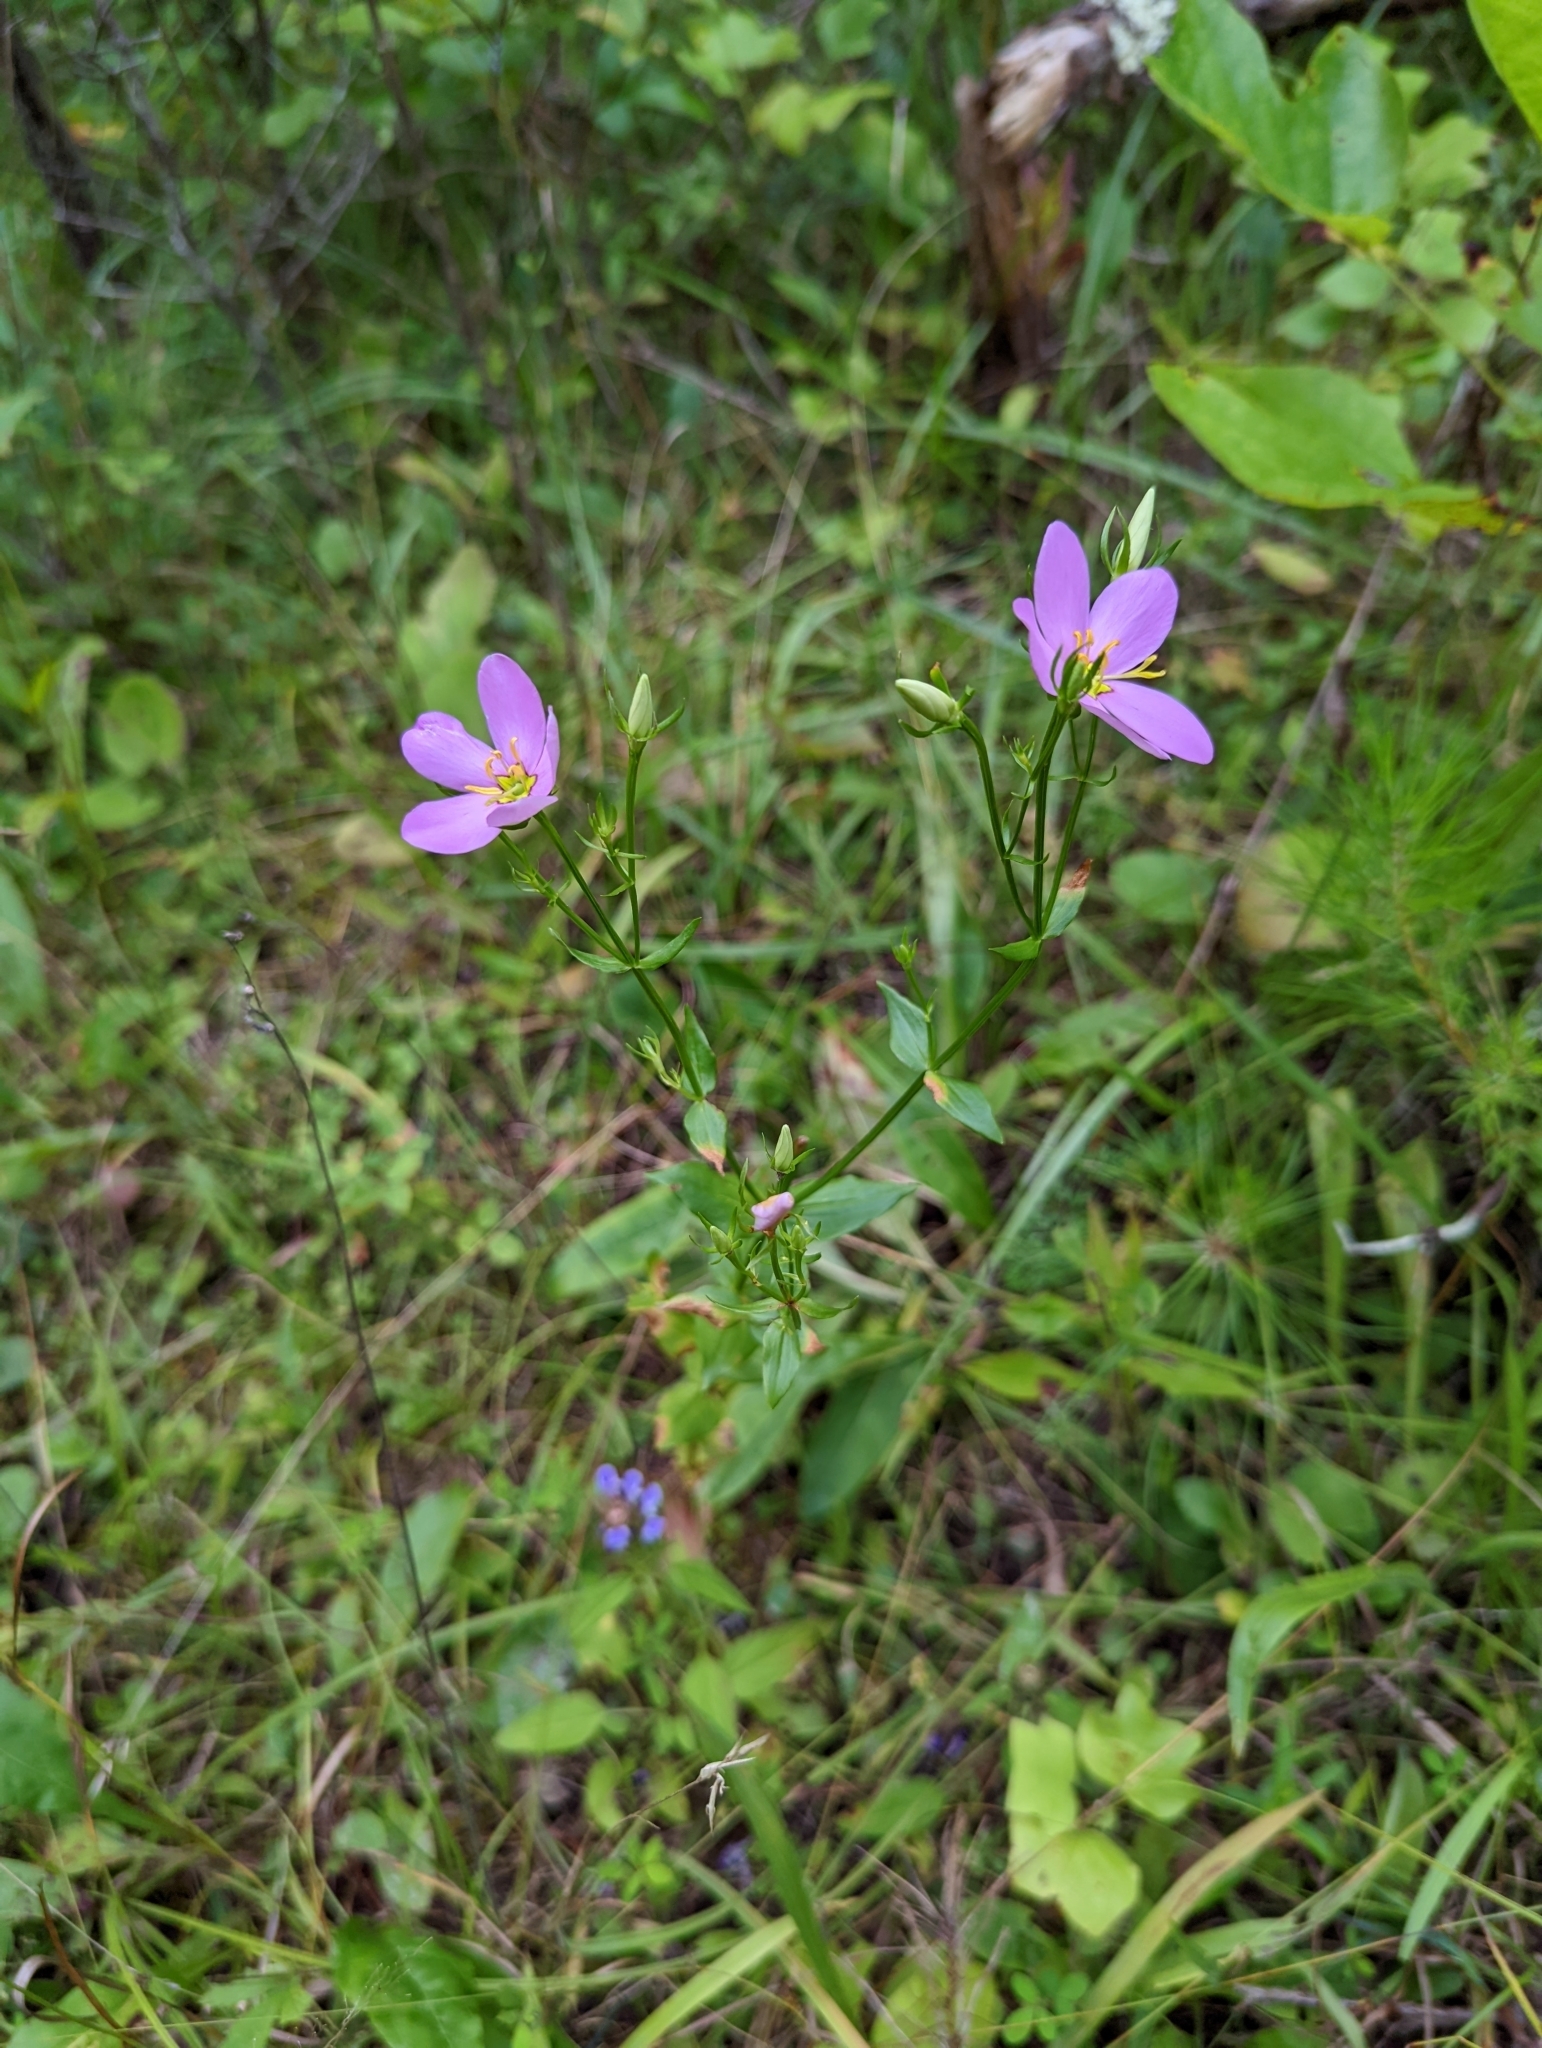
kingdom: Plantae
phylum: Tracheophyta
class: Magnoliopsida
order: Gentianales
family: Gentianaceae
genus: Sabatia
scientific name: Sabatia angularis
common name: Rose-pink
